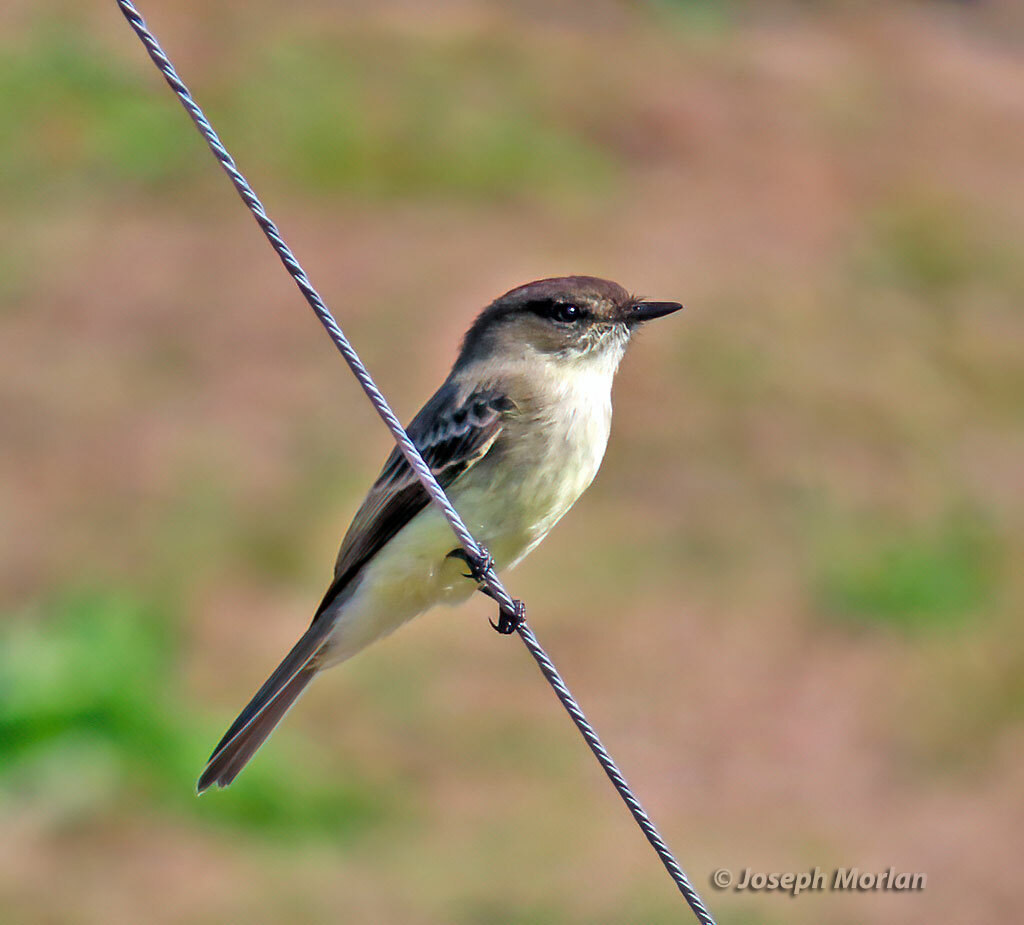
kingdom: Animalia
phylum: Chordata
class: Aves
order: Passeriformes
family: Tyrannidae
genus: Sayornis
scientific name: Sayornis phoebe
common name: Eastern phoebe
